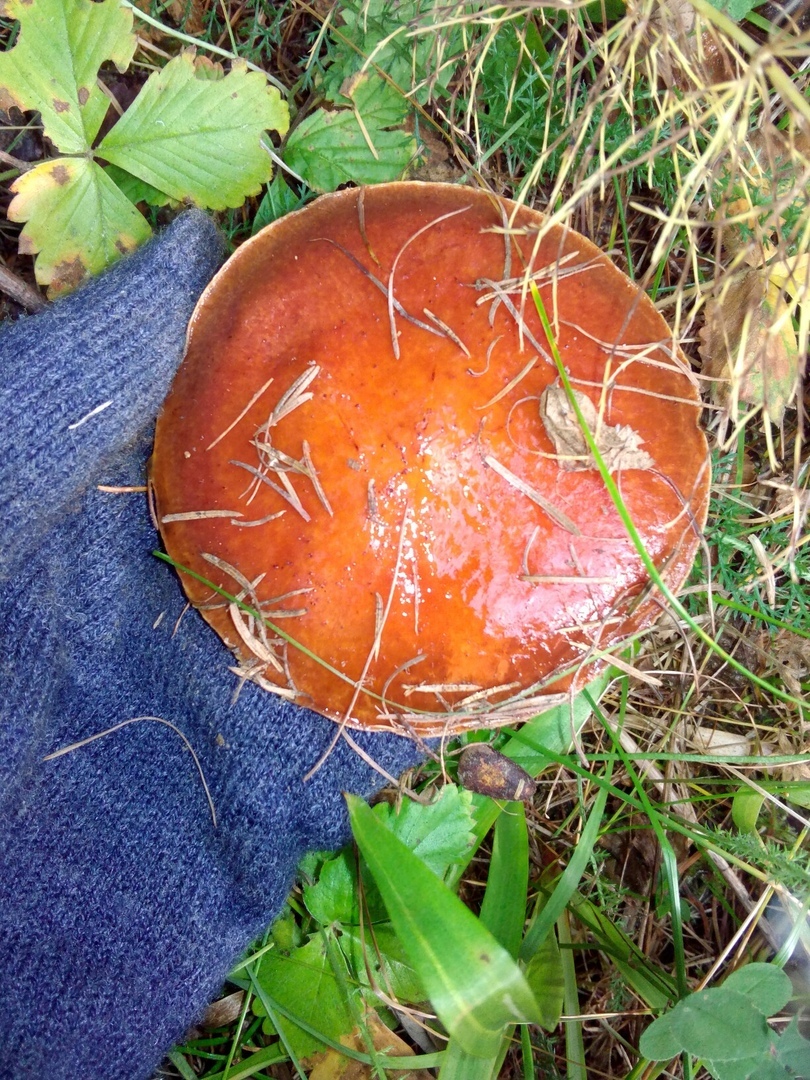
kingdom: Fungi
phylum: Basidiomycota
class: Agaricomycetes
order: Boletales
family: Suillaceae
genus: Suillus
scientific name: Suillus grevillei
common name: Larch bolete
